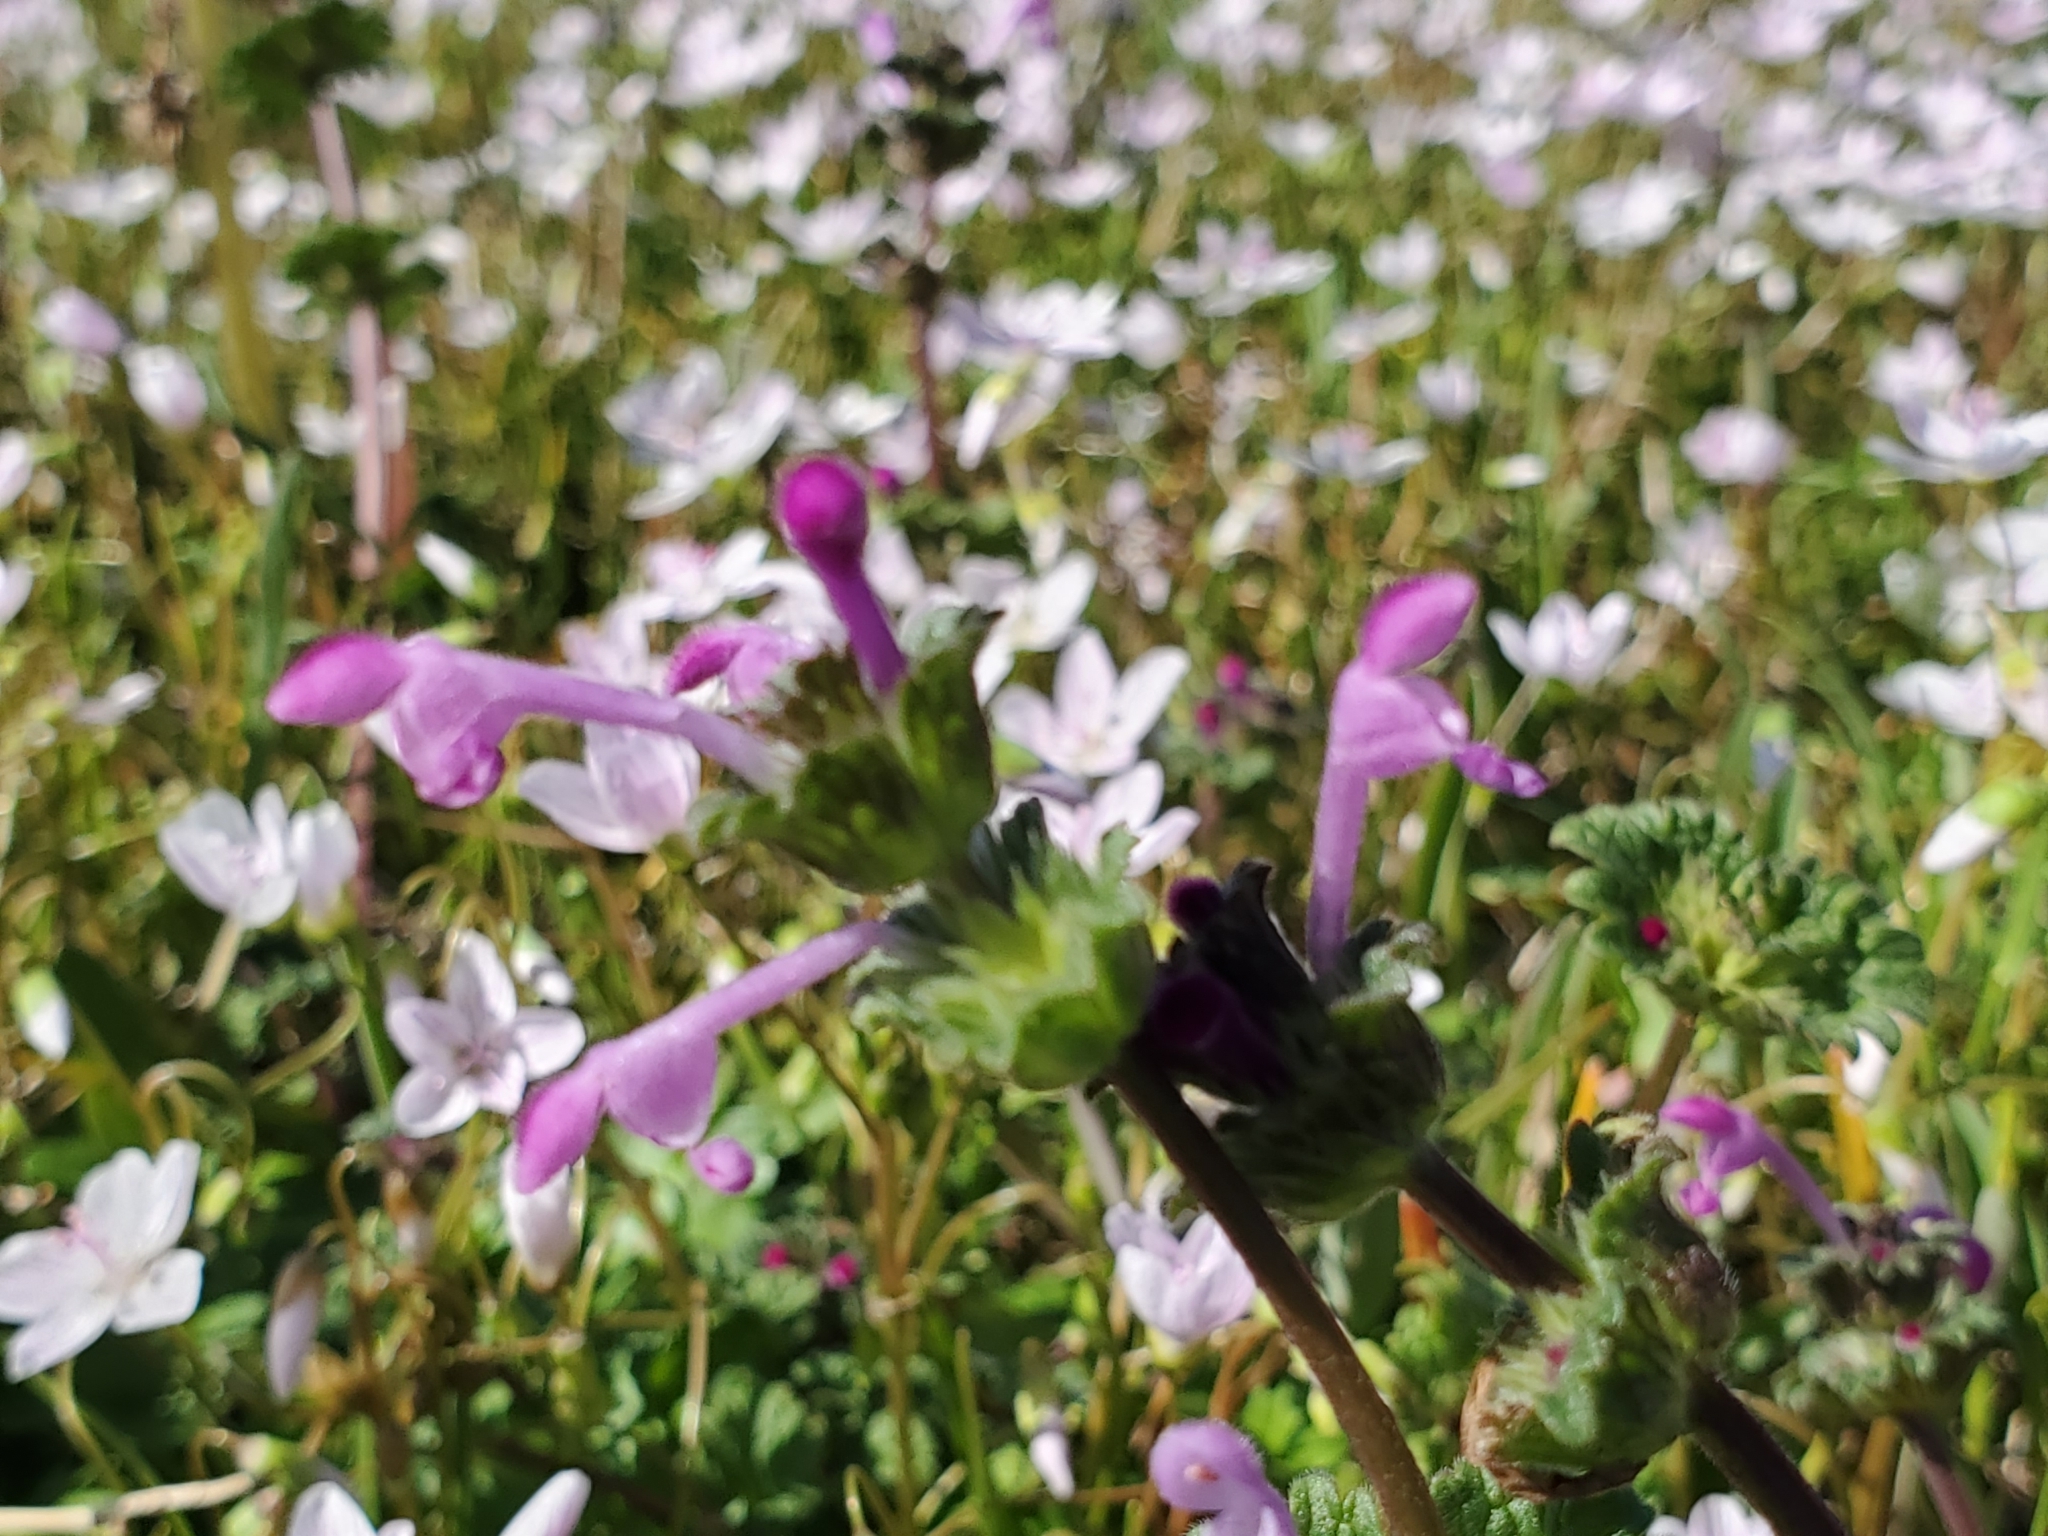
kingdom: Plantae
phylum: Tracheophyta
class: Magnoliopsida
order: Lamiales
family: Lamiaceae
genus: Lamium
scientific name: Lamium amplexicaule
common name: Henbit dead-nettle
